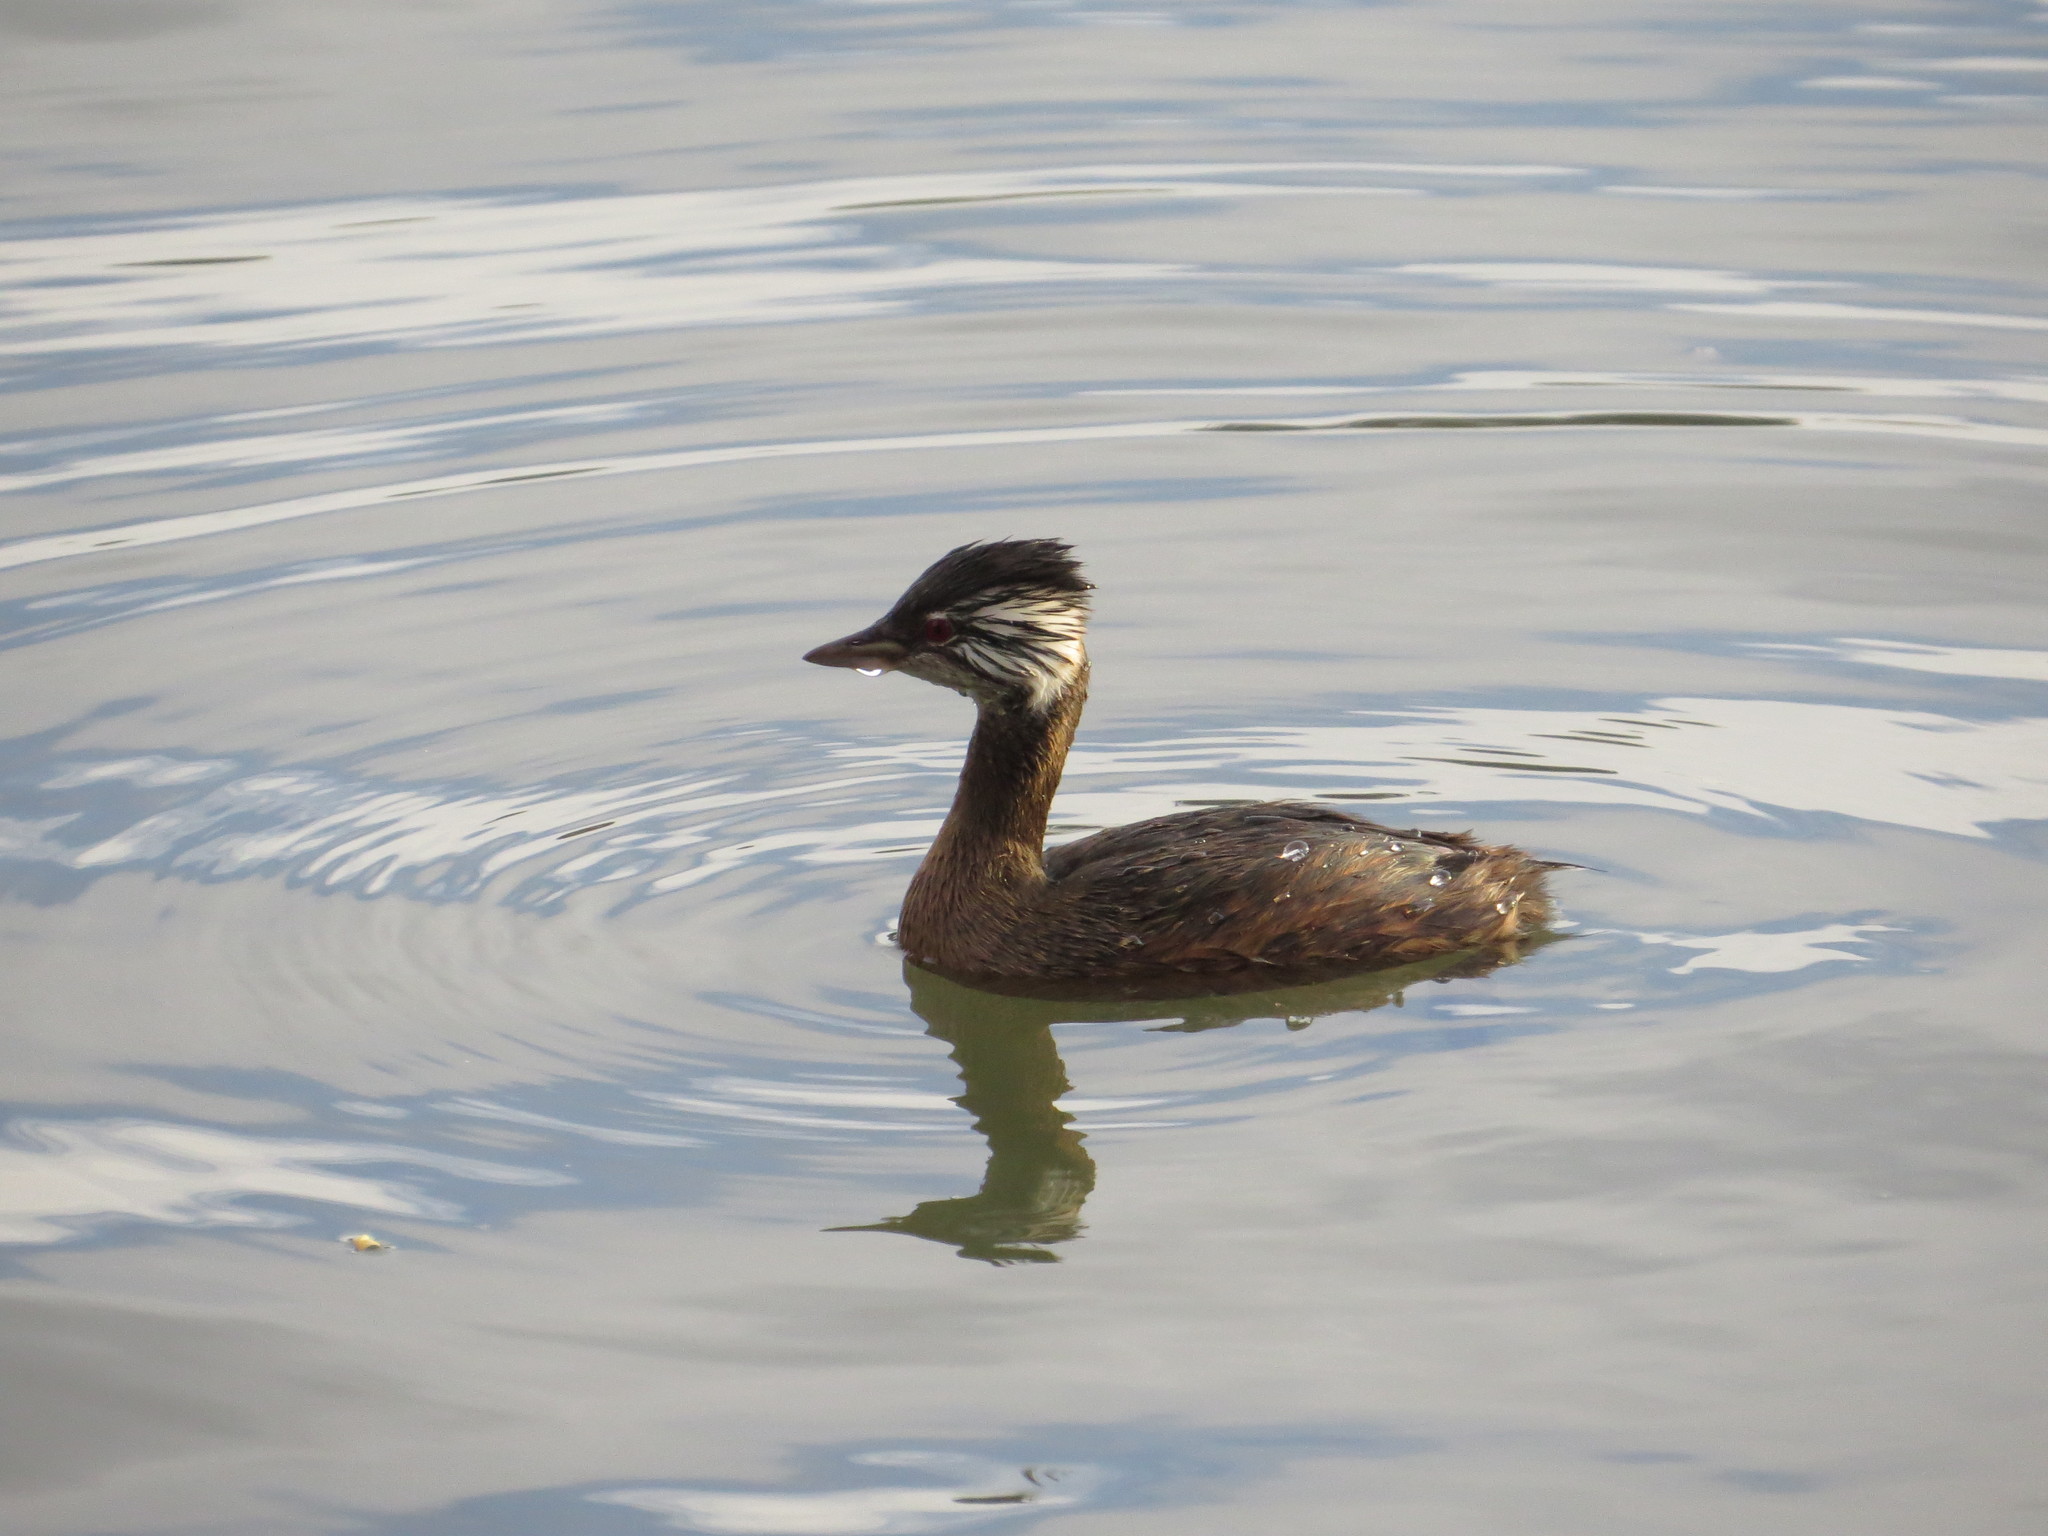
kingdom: Animalia
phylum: Chordata
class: Aves
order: Podicipediformes
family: Podicipedidae
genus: Rollandia
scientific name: Rollandia rolland
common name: White-tufted grebe
